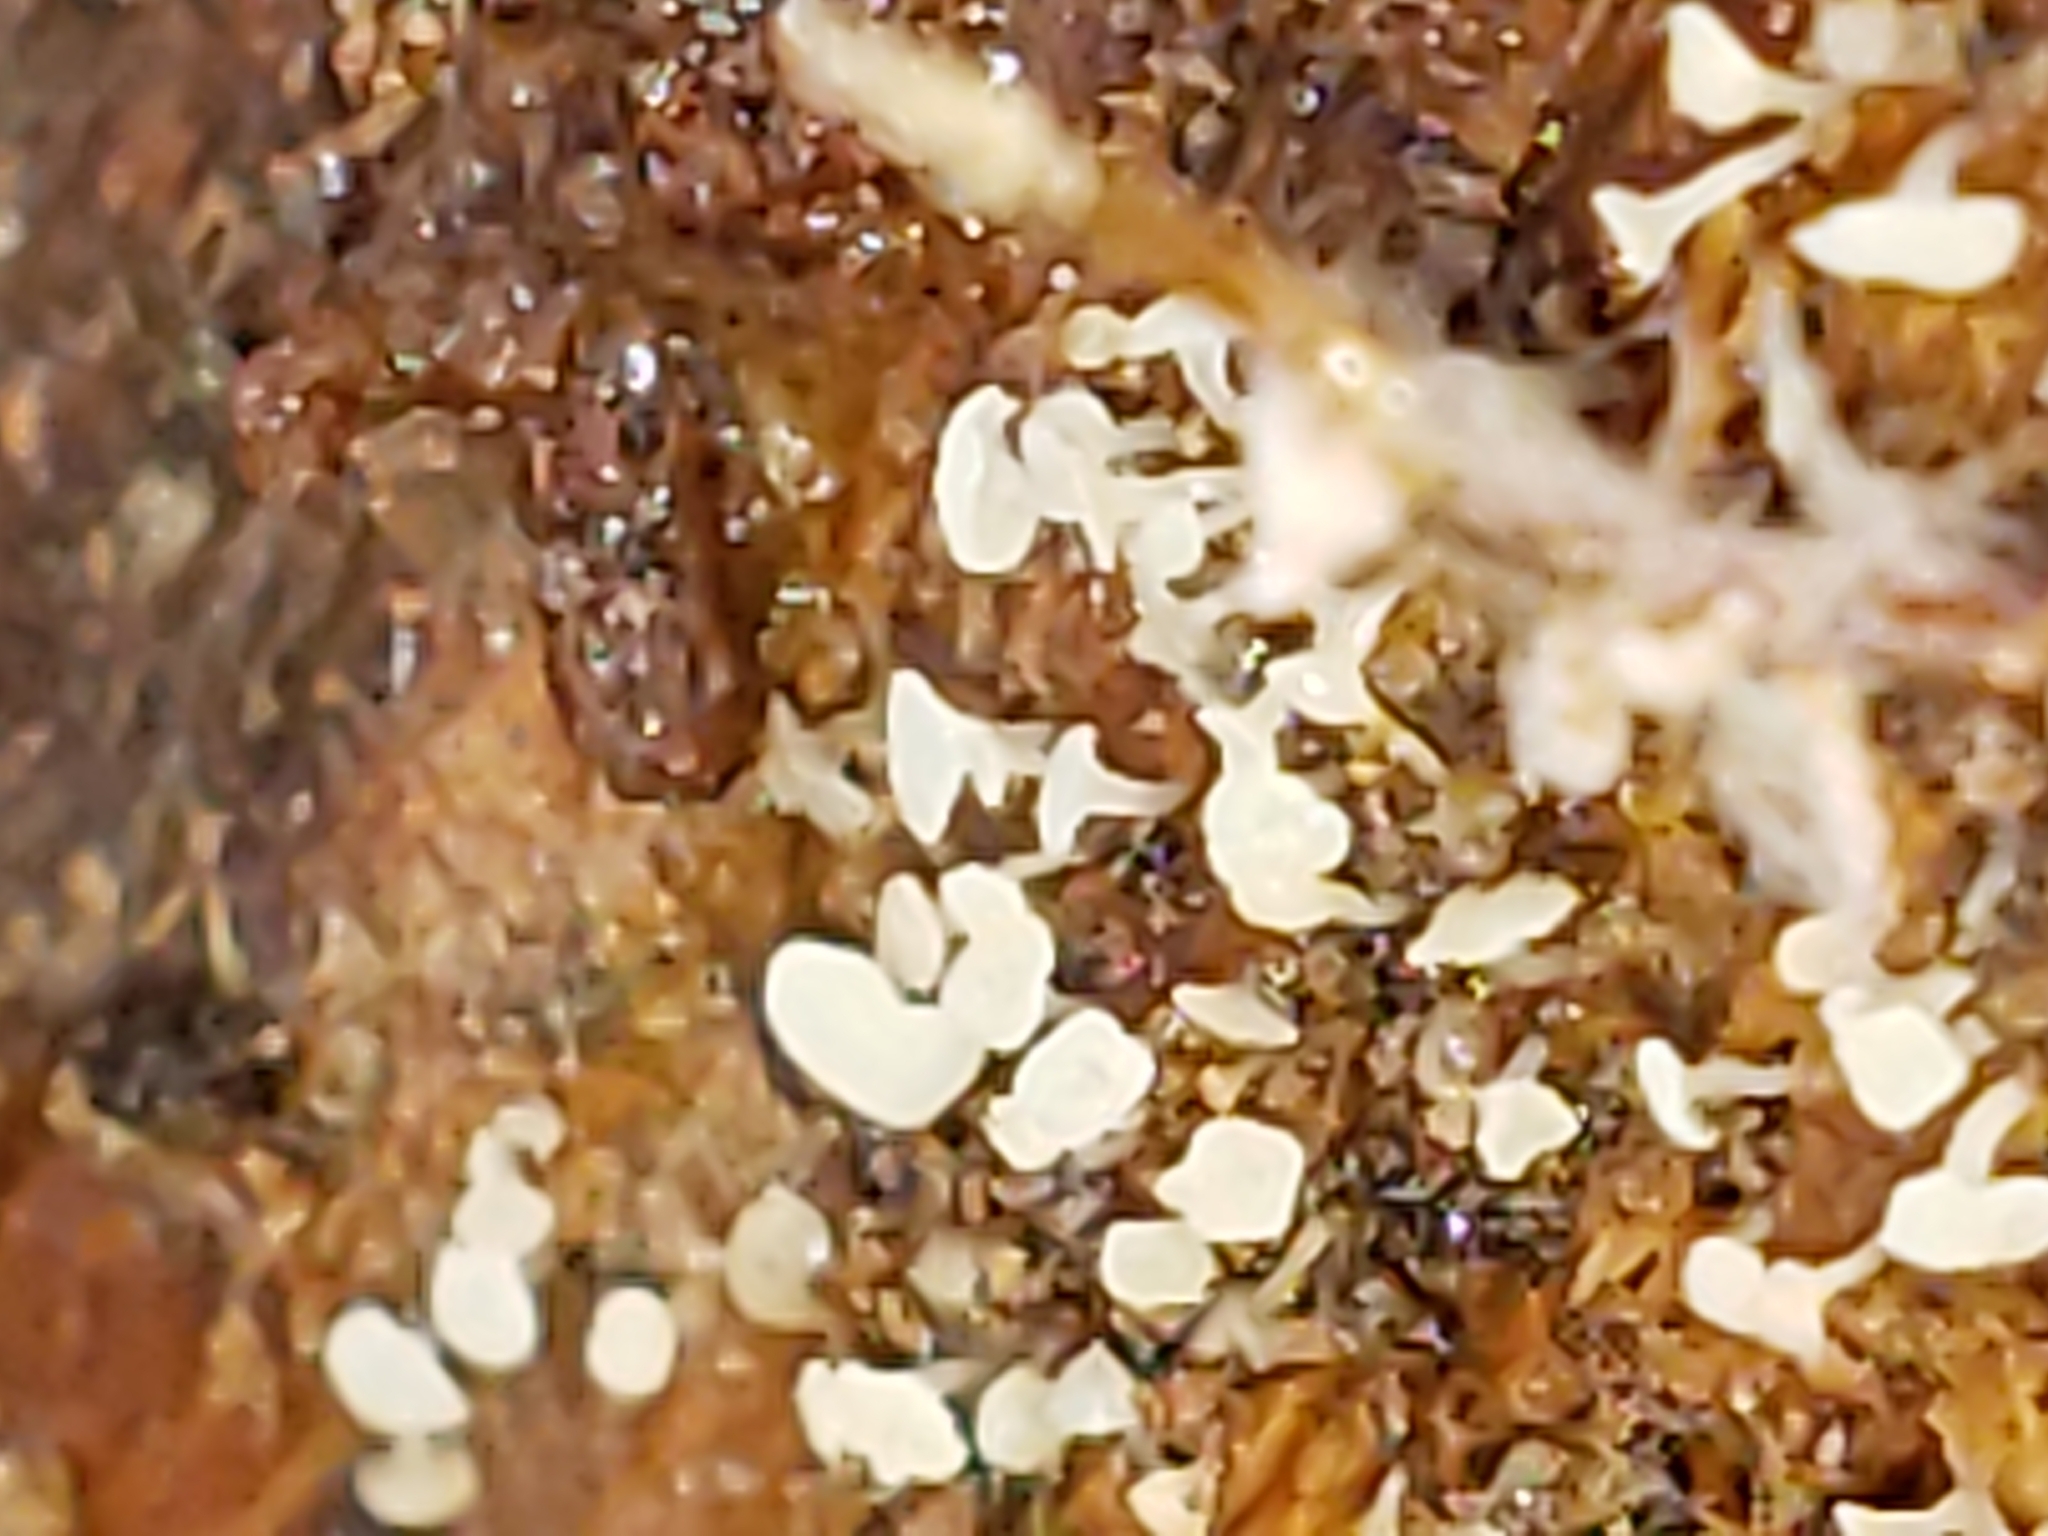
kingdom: Fungi
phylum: Ascomycota
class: Leotiomycetes
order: Helotiales
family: Tricladiaceae
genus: Cudoniella
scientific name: Cudoniella acicularis
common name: Oak pin
